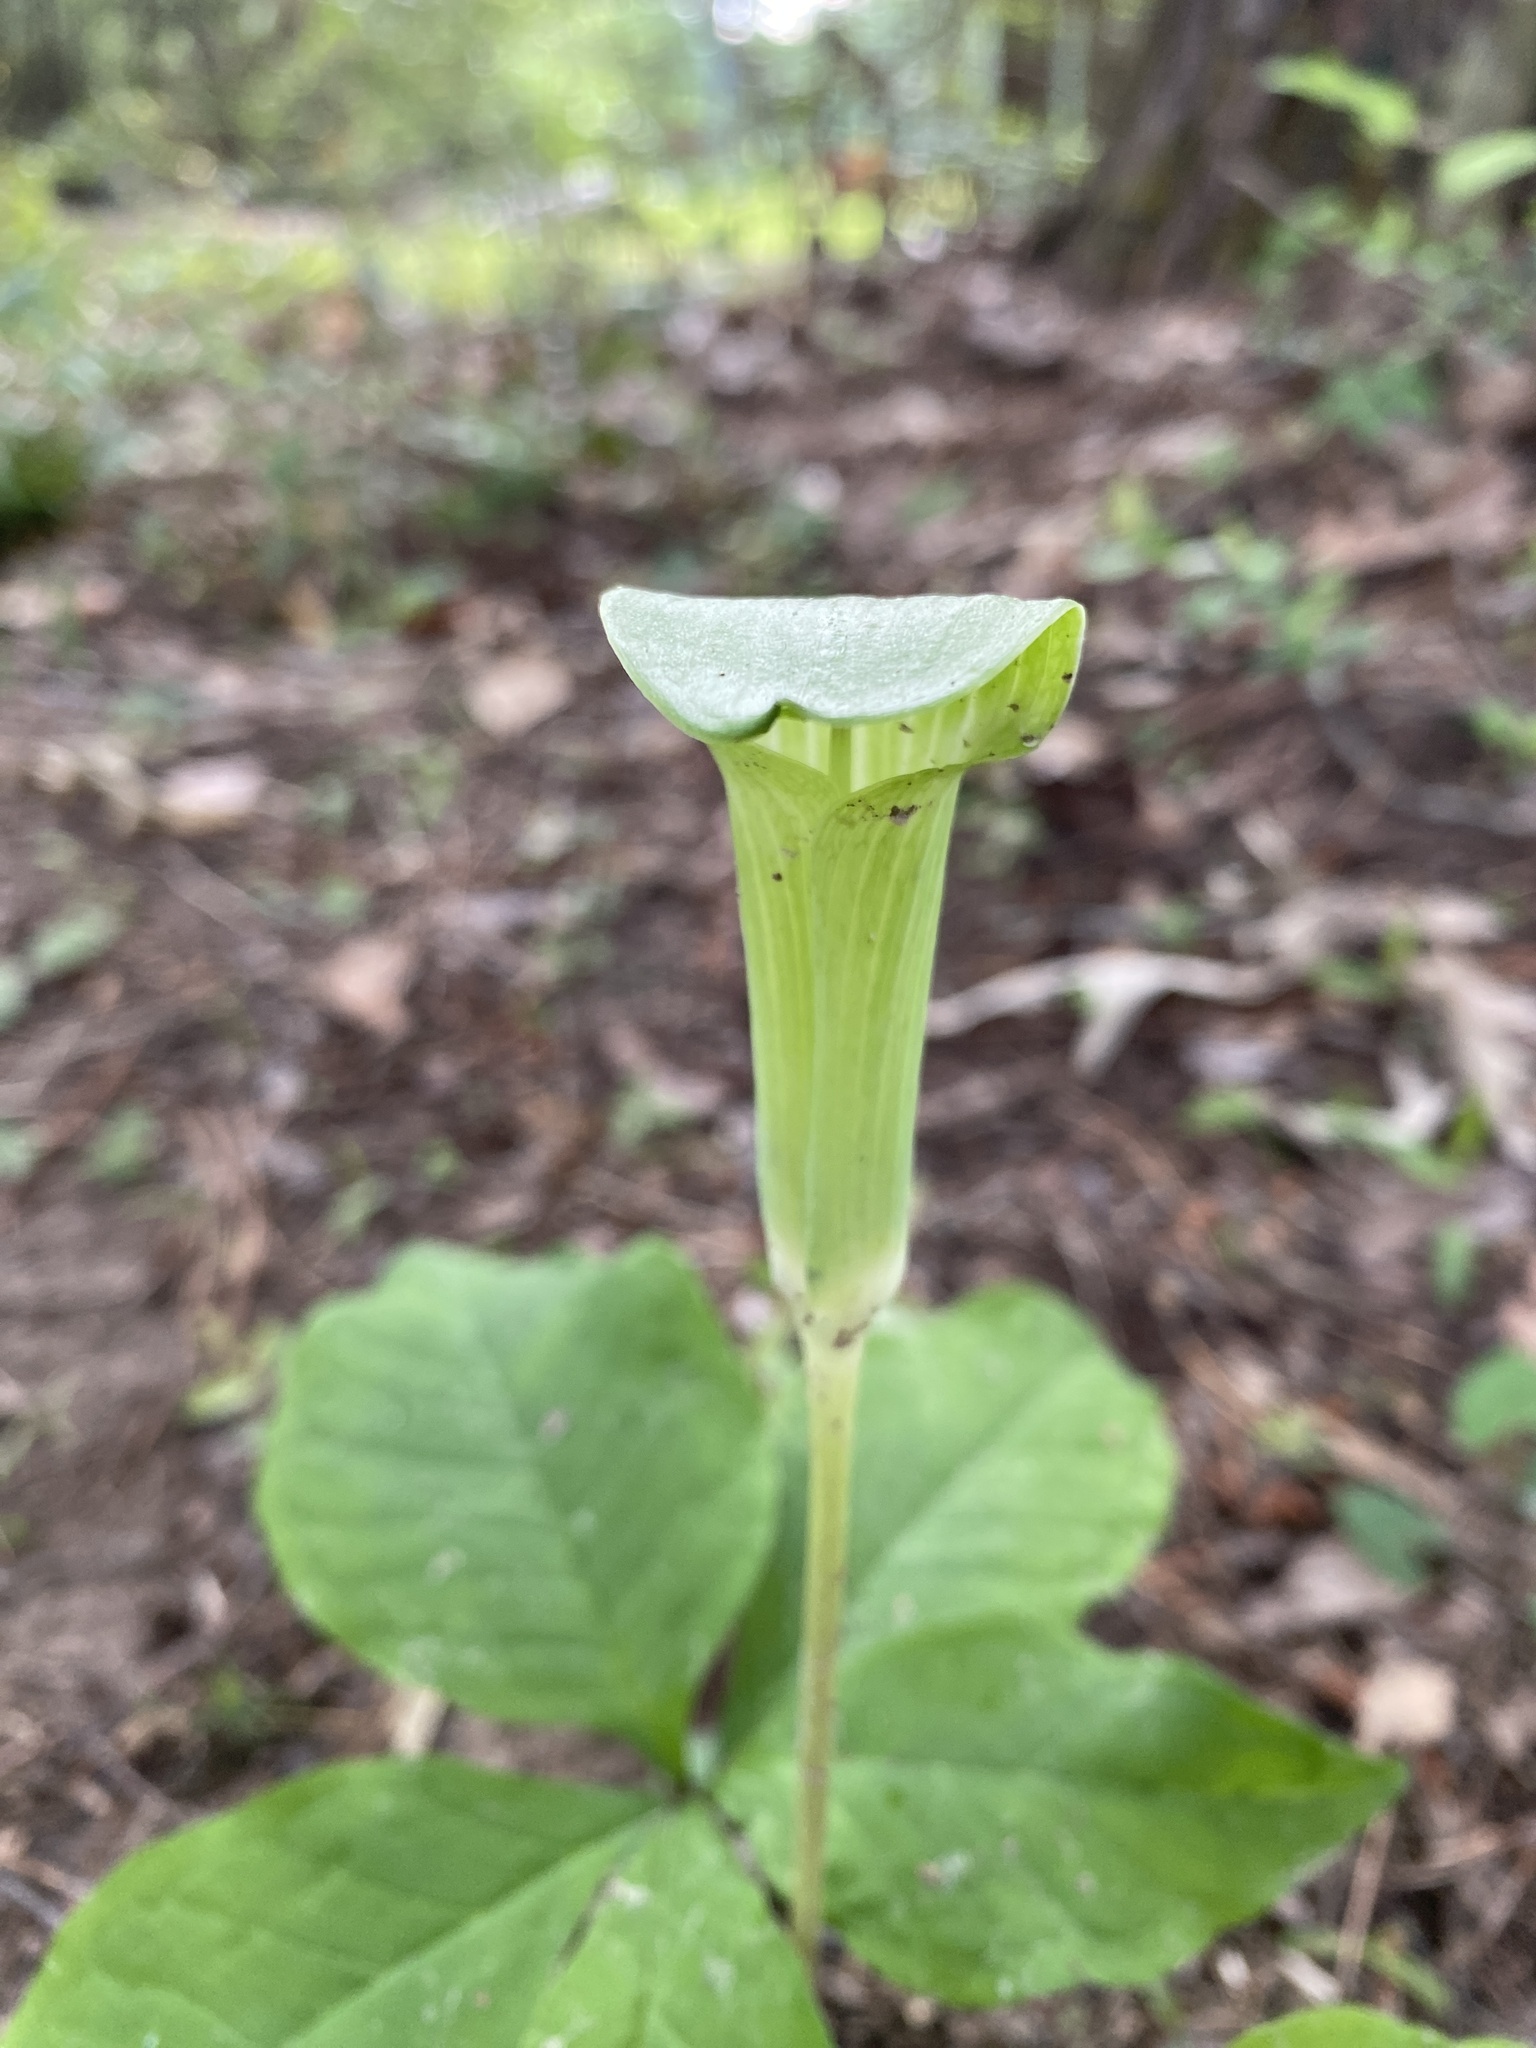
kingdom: Plantae
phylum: Tracheophyta
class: Liliopsida
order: Alismatales
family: Araceae
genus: Arisaema
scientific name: Arisaema quinatum
